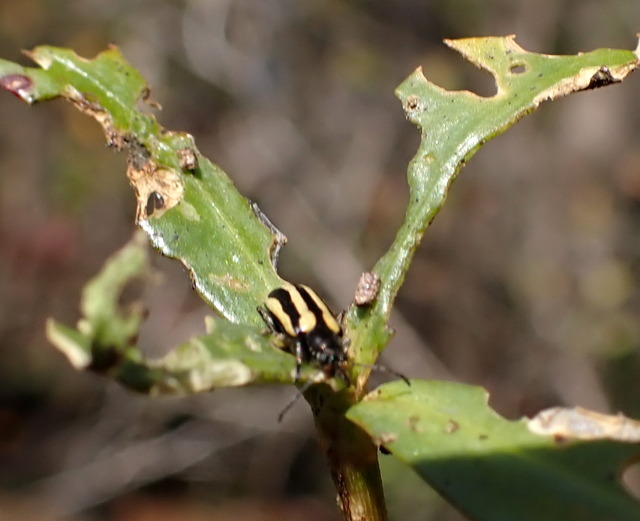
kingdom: Animalia
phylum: Arthropoda
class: Insecta
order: Coleoptera
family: Chrysomelidae
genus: Agasicles
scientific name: Agasicles hygrophila
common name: Alligatorweed flea beetle
